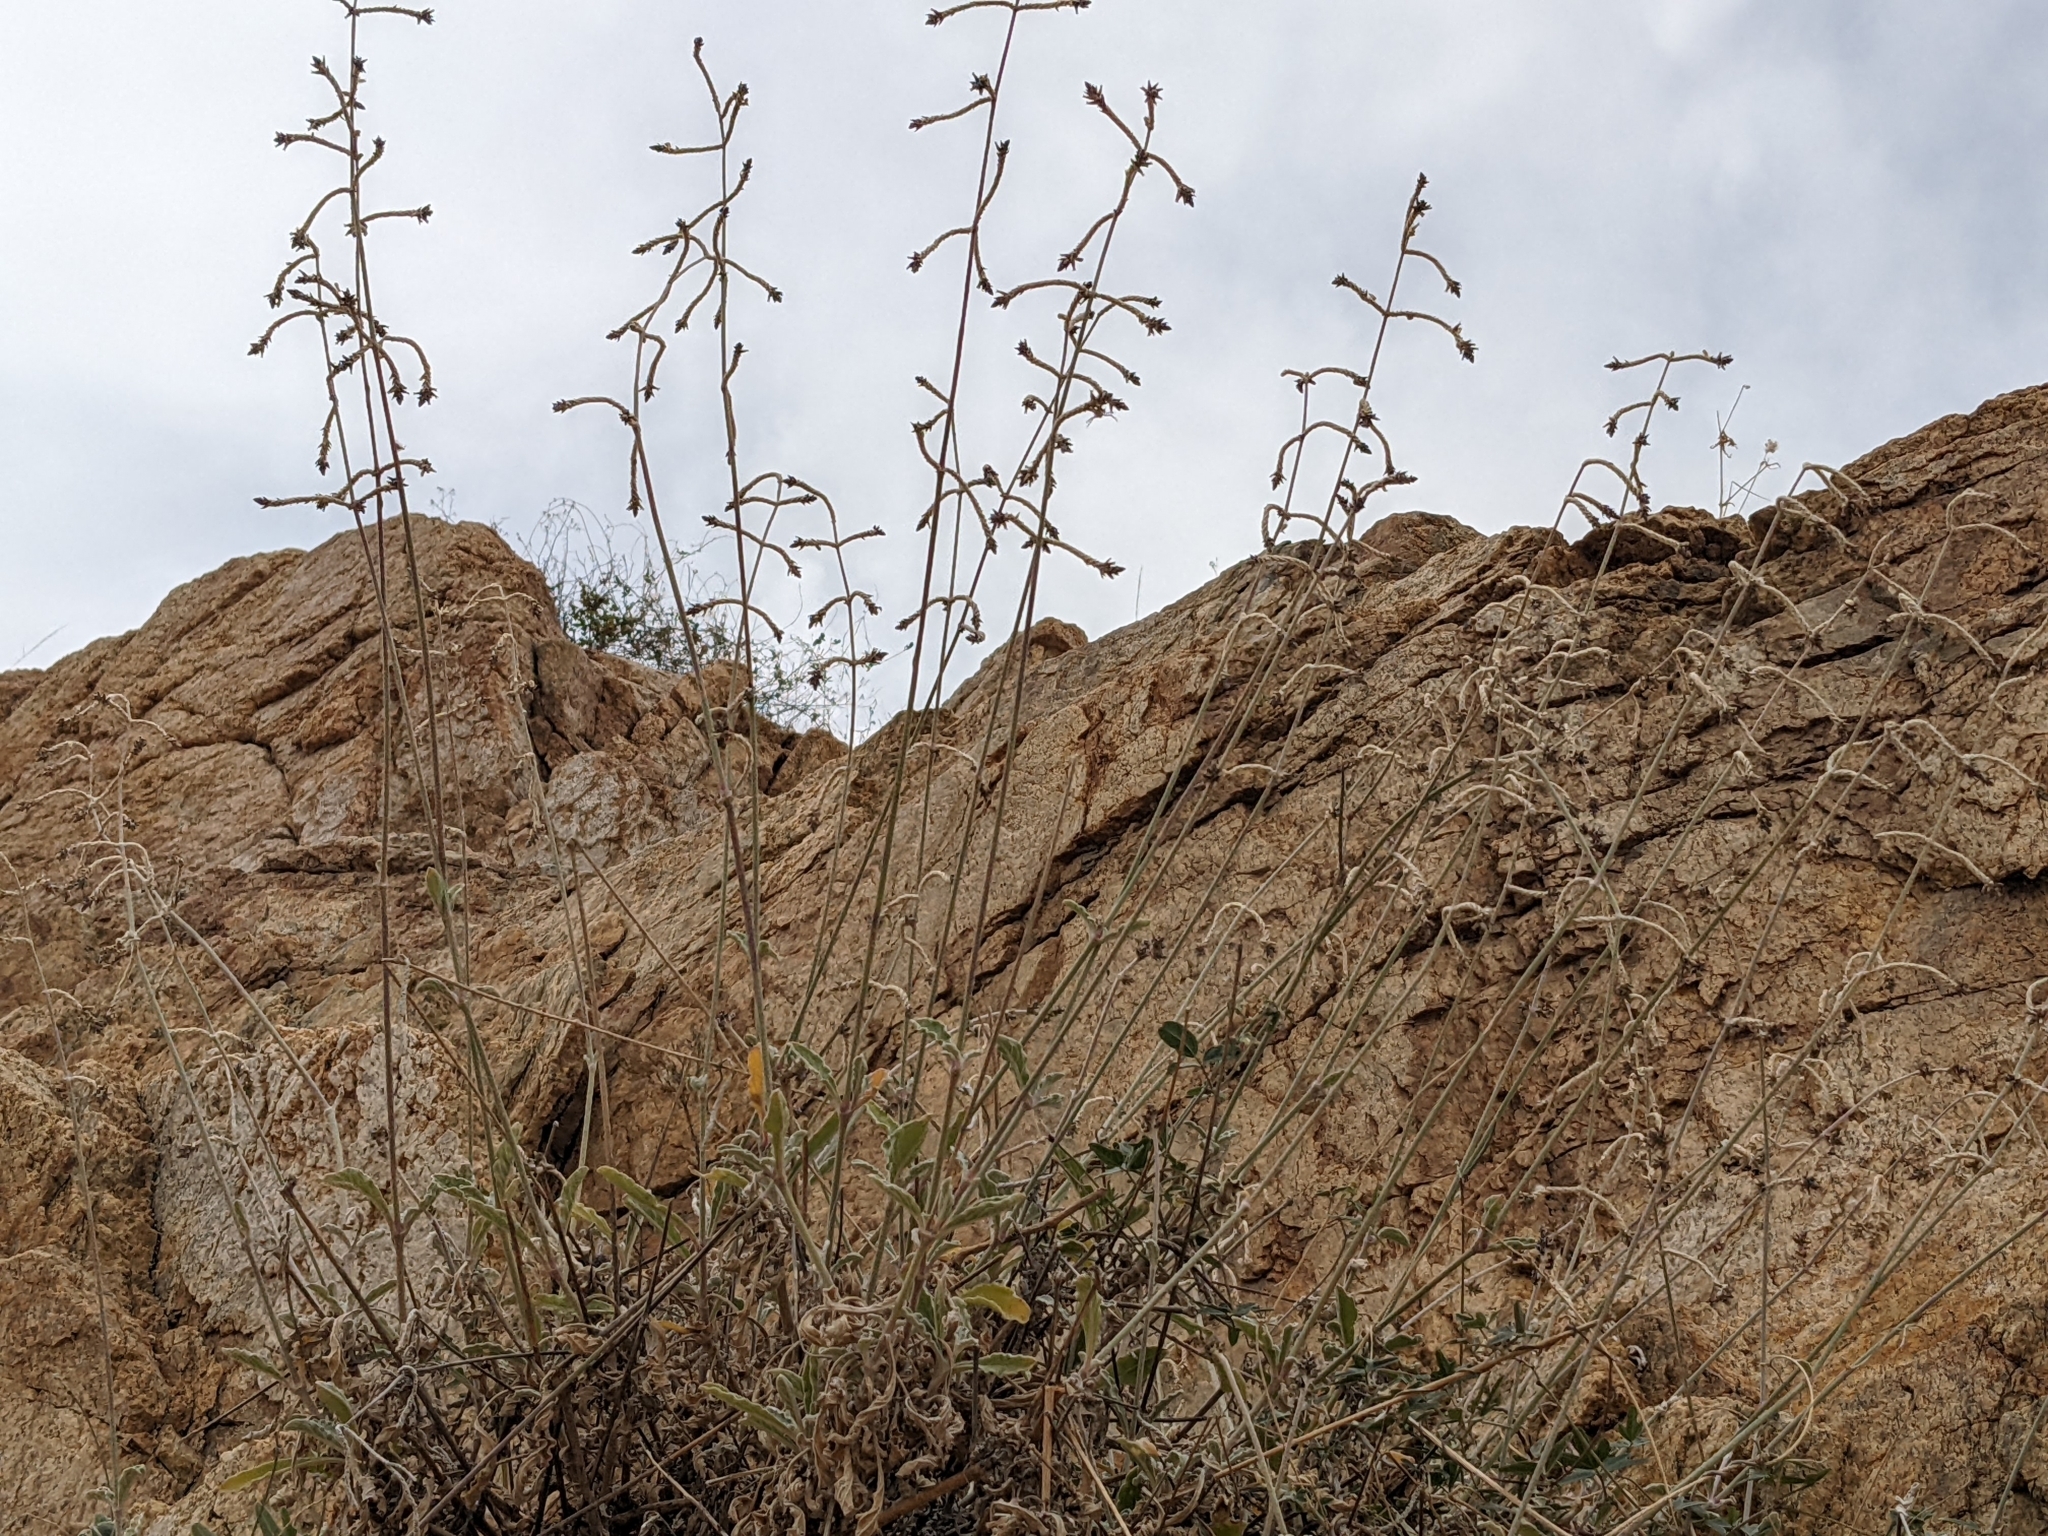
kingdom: Plantae
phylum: Tracheophyta
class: Magnoliopsida
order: Caryophyllales
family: Amaranthaceae
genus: Froelichia
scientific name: Froelichia xantusii
